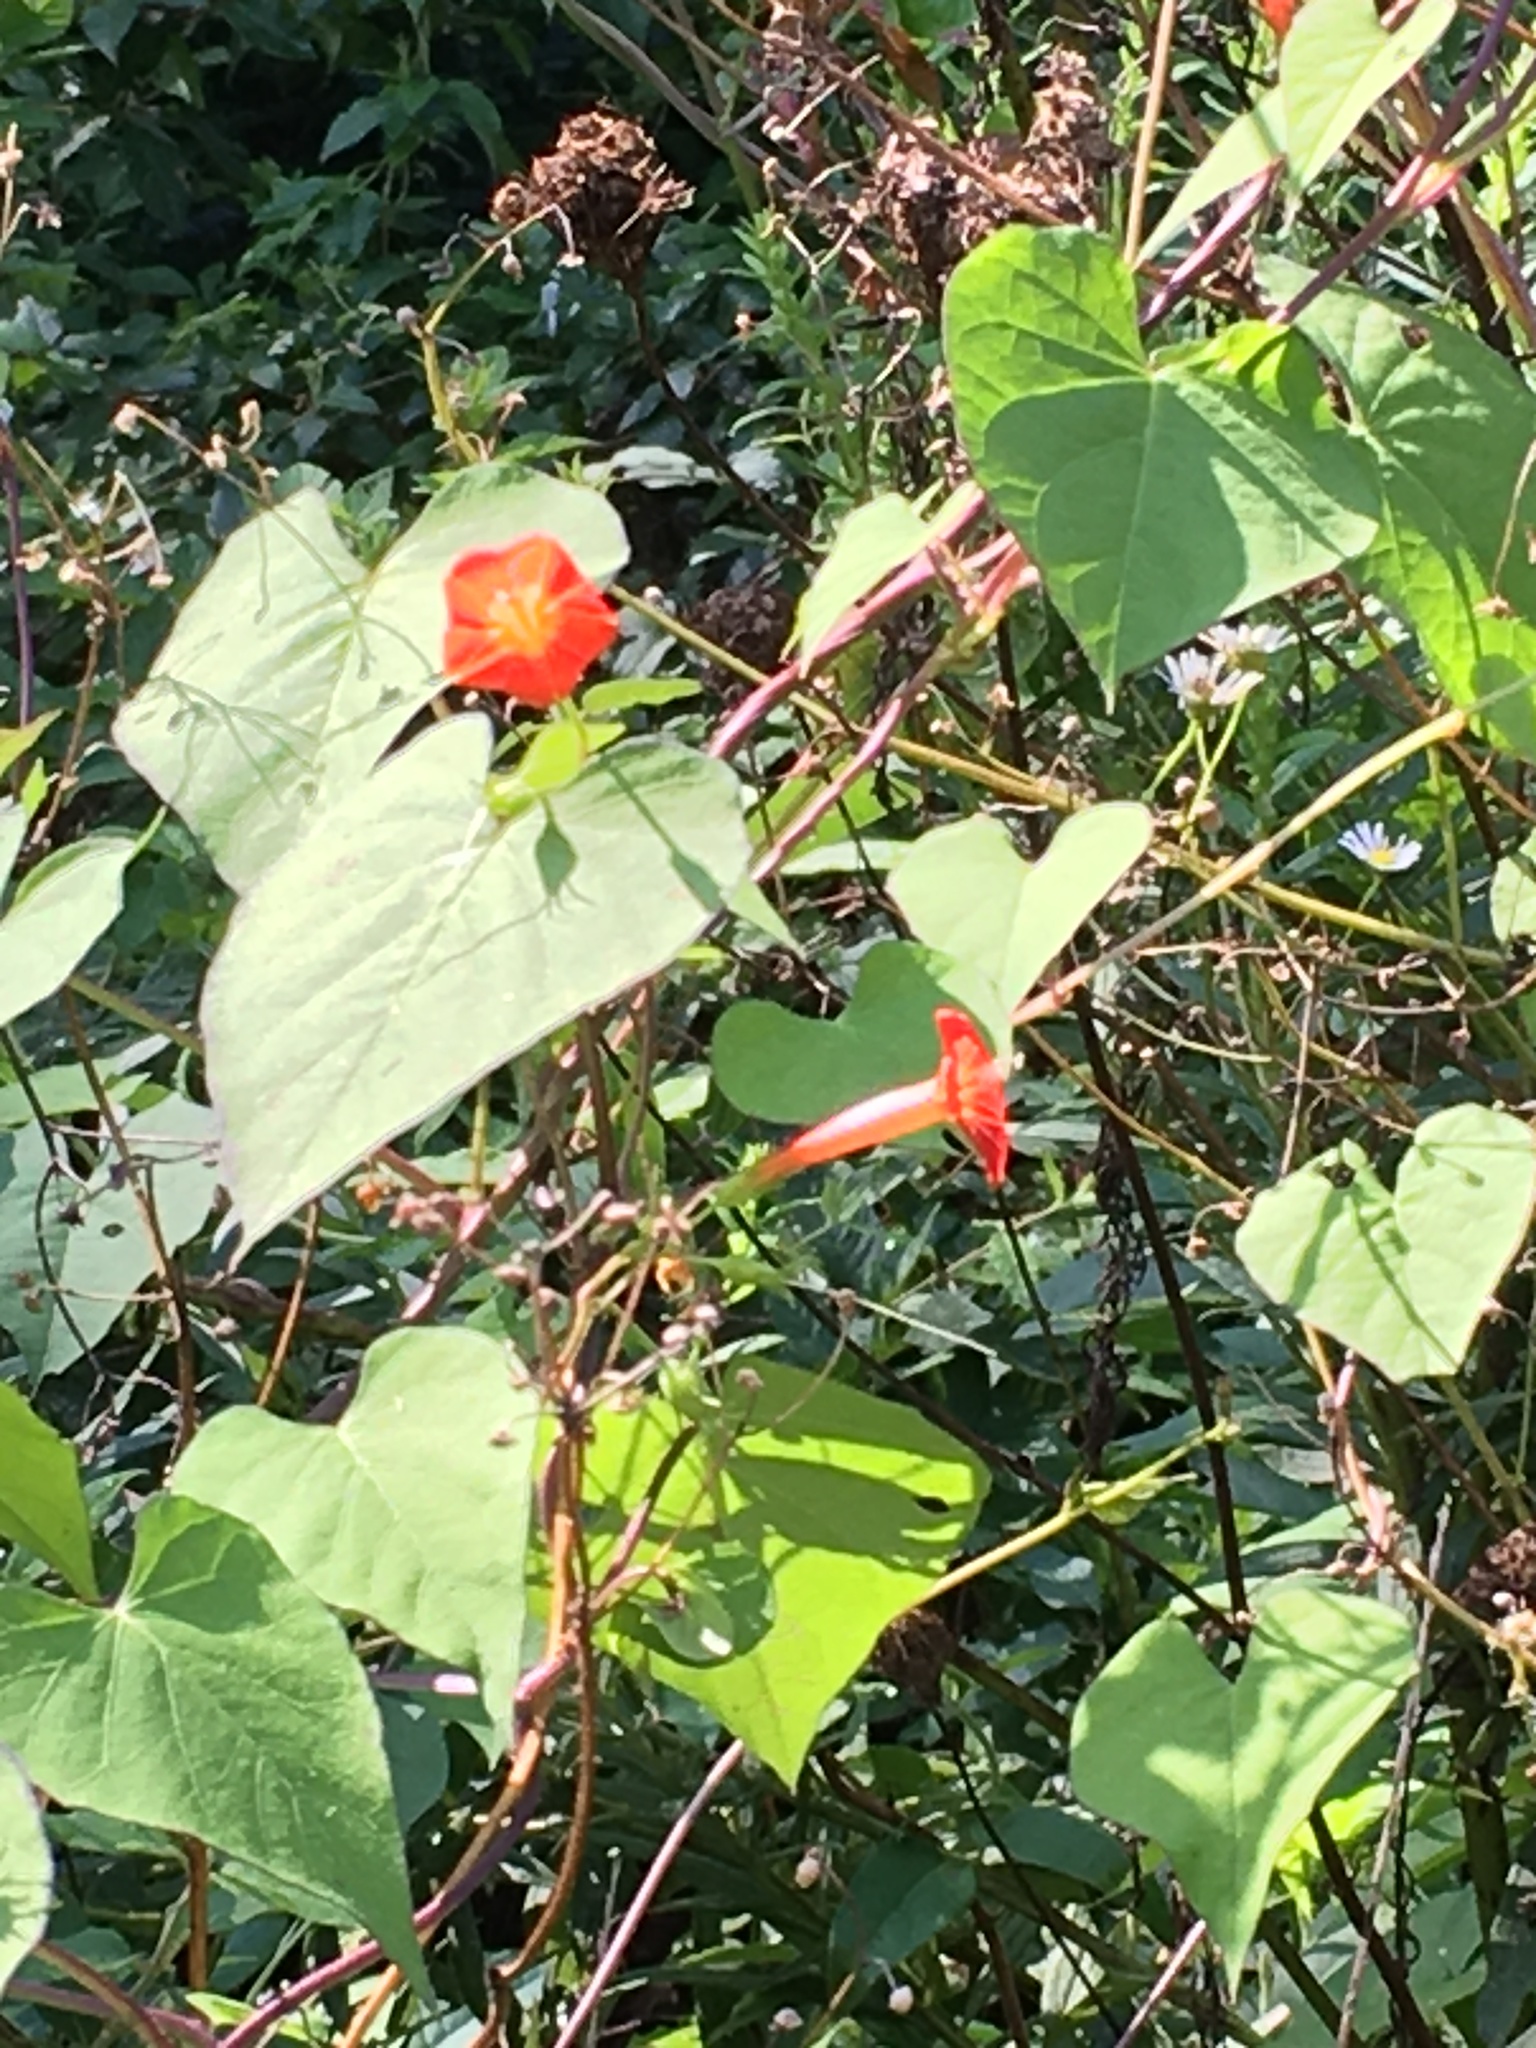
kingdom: Plantae
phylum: Tracheophyta
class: Magnoliopsida
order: Solanales
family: Convolvulaceae
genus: Ipomoea
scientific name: Ipomoea coccinea
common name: Red morning-glory
